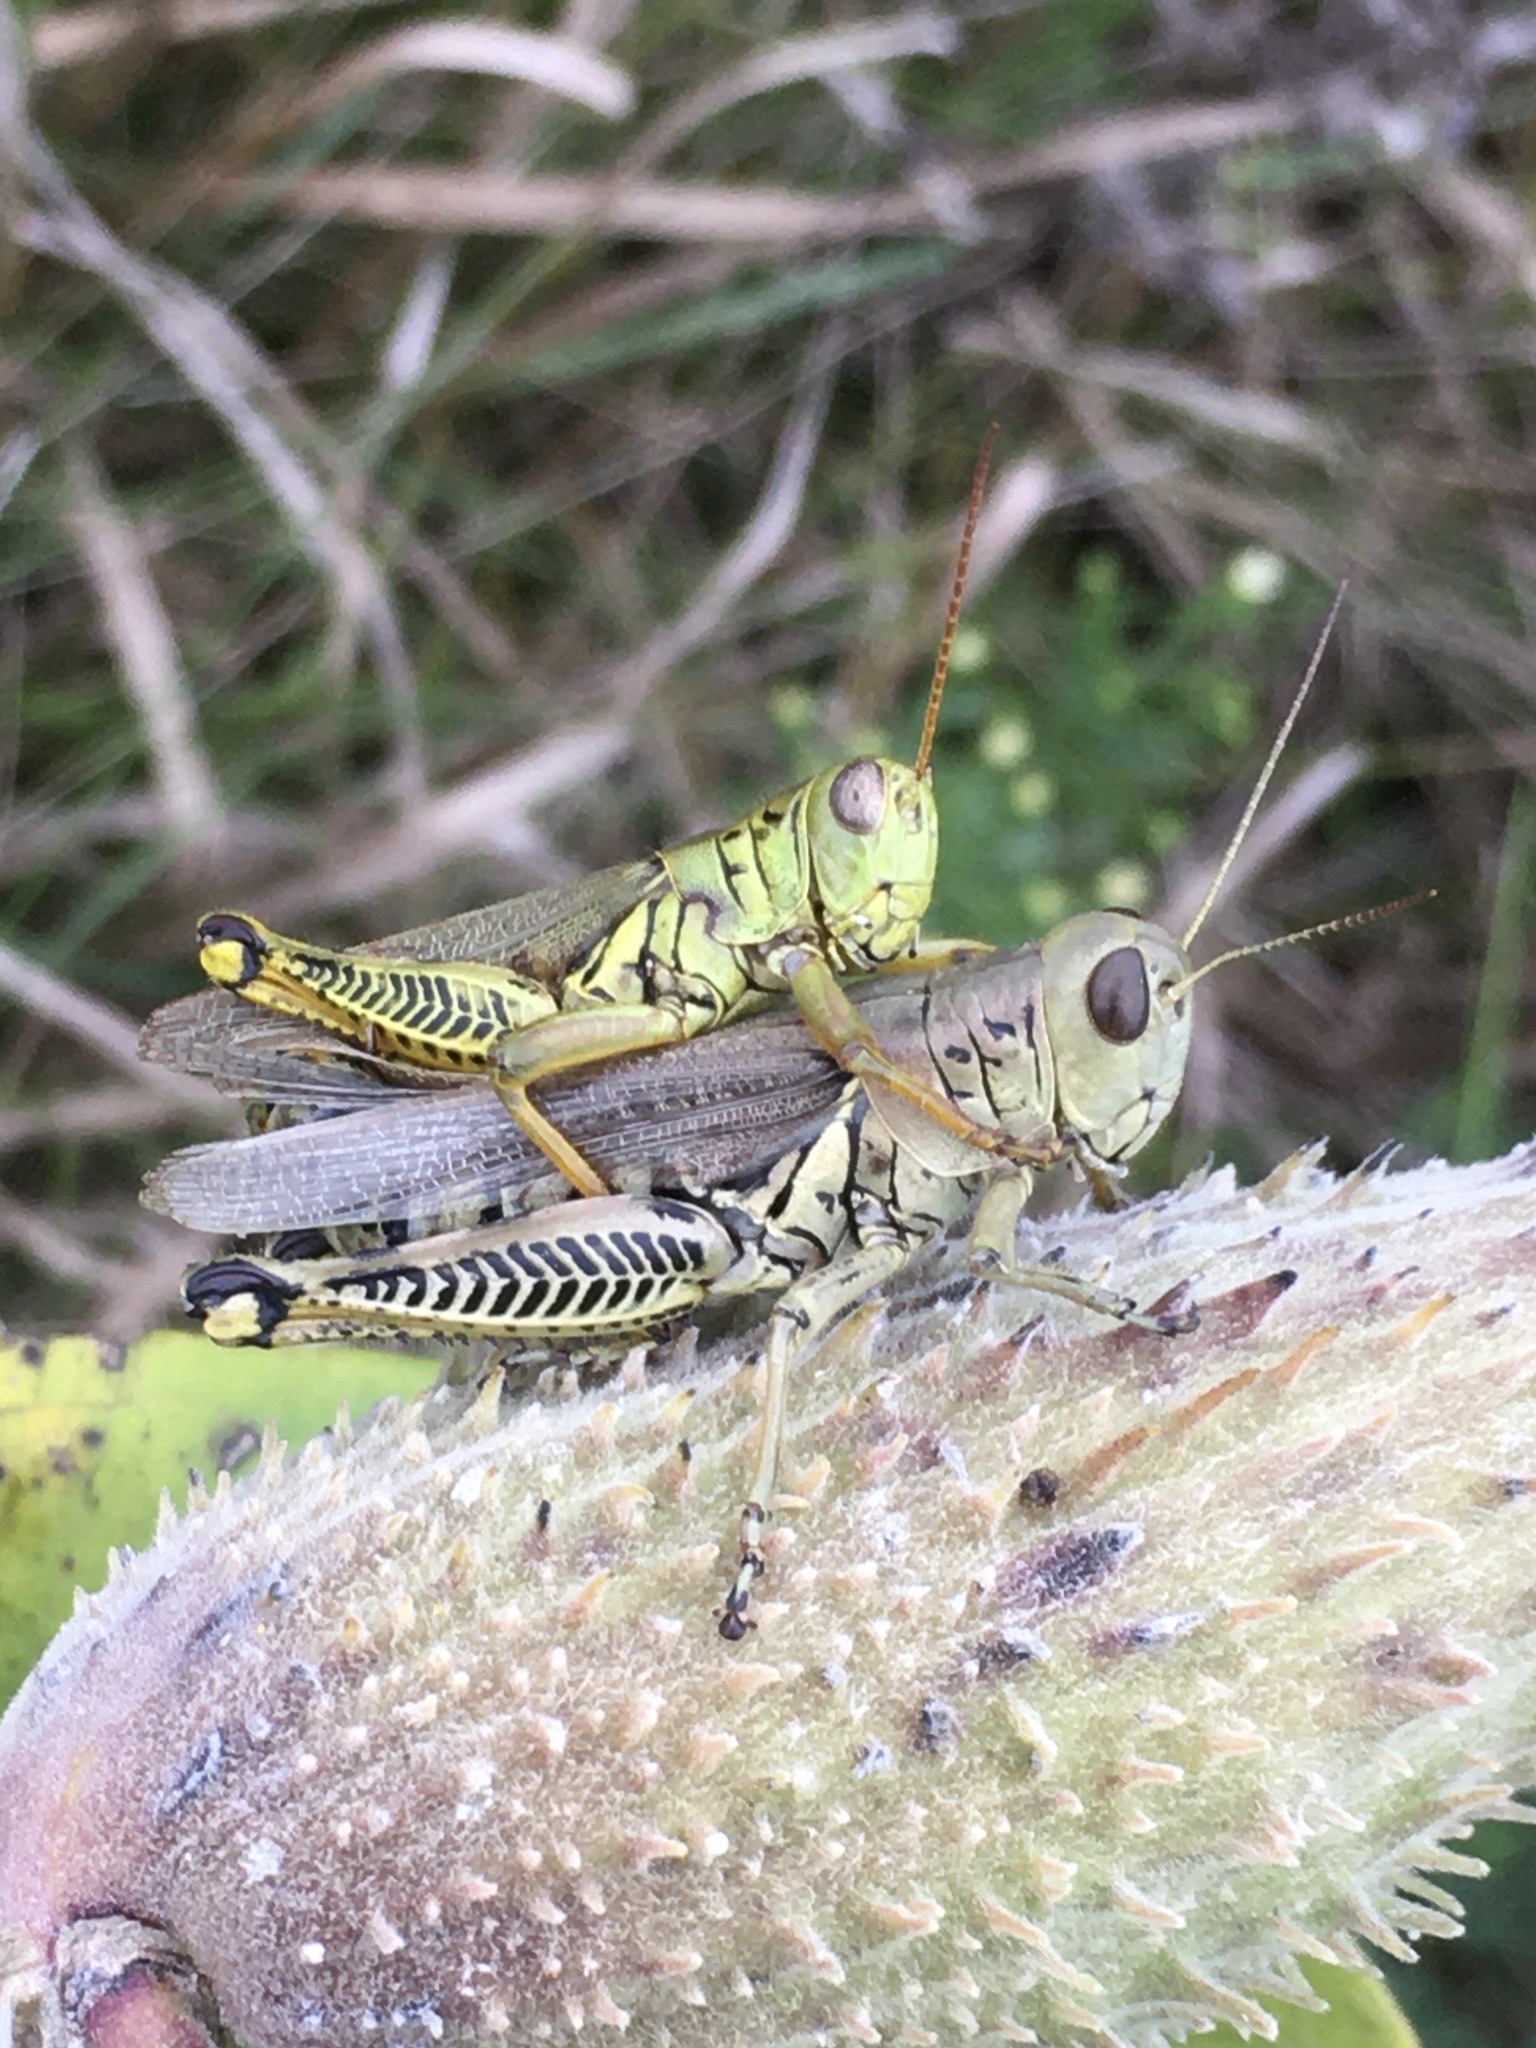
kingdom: Animalia
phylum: Arthropoda
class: Insecta
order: Orthoptera
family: Acrididae
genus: Melanoplus
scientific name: Melanoplus differentialis
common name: Differential grasshopper
